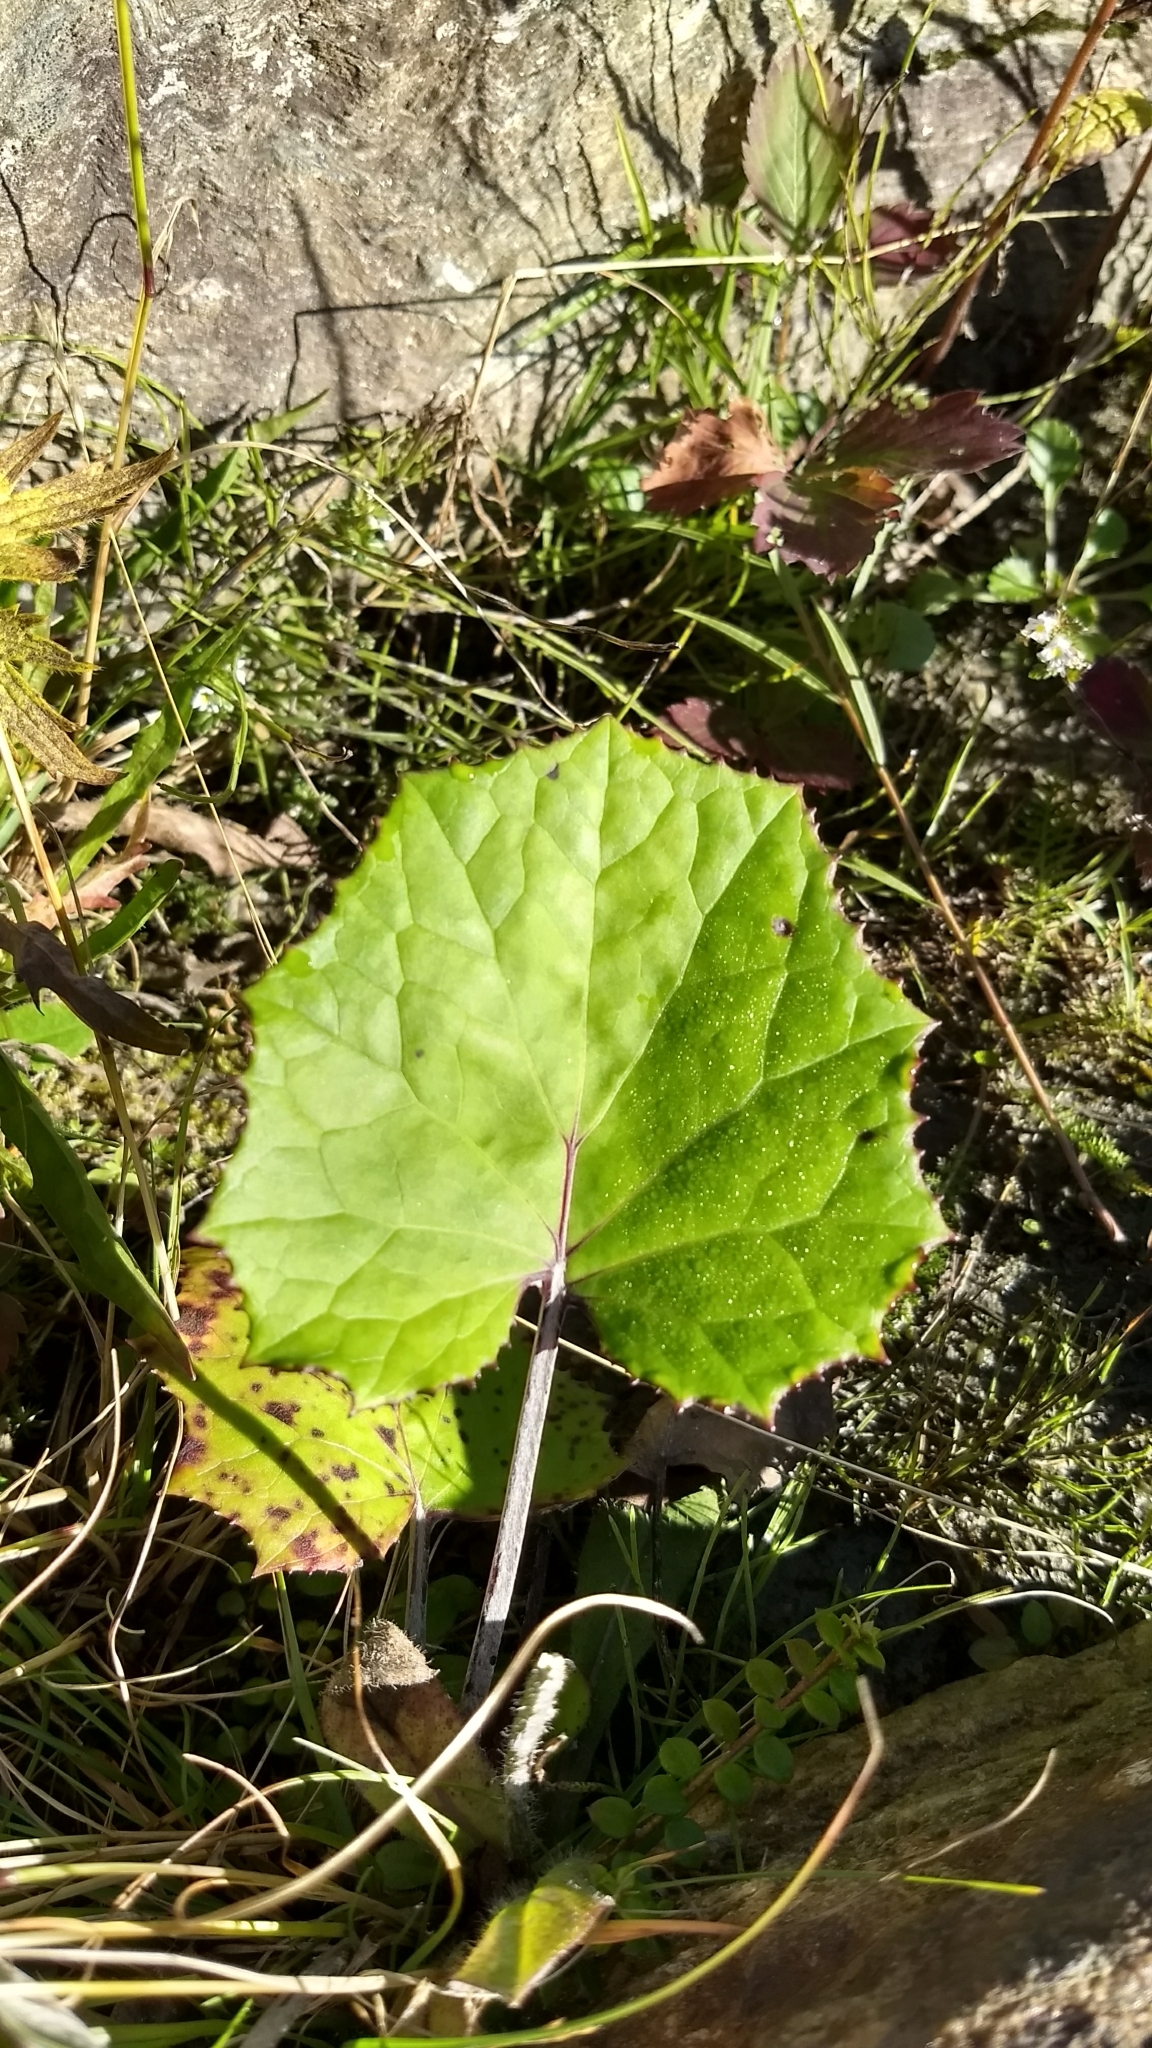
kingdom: Plantae
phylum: Tracheophyta
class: Magnoliopsida
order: Asterales
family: Asteraceae
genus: Tussilago
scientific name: Tussilago farfara
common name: Coltsfoot
